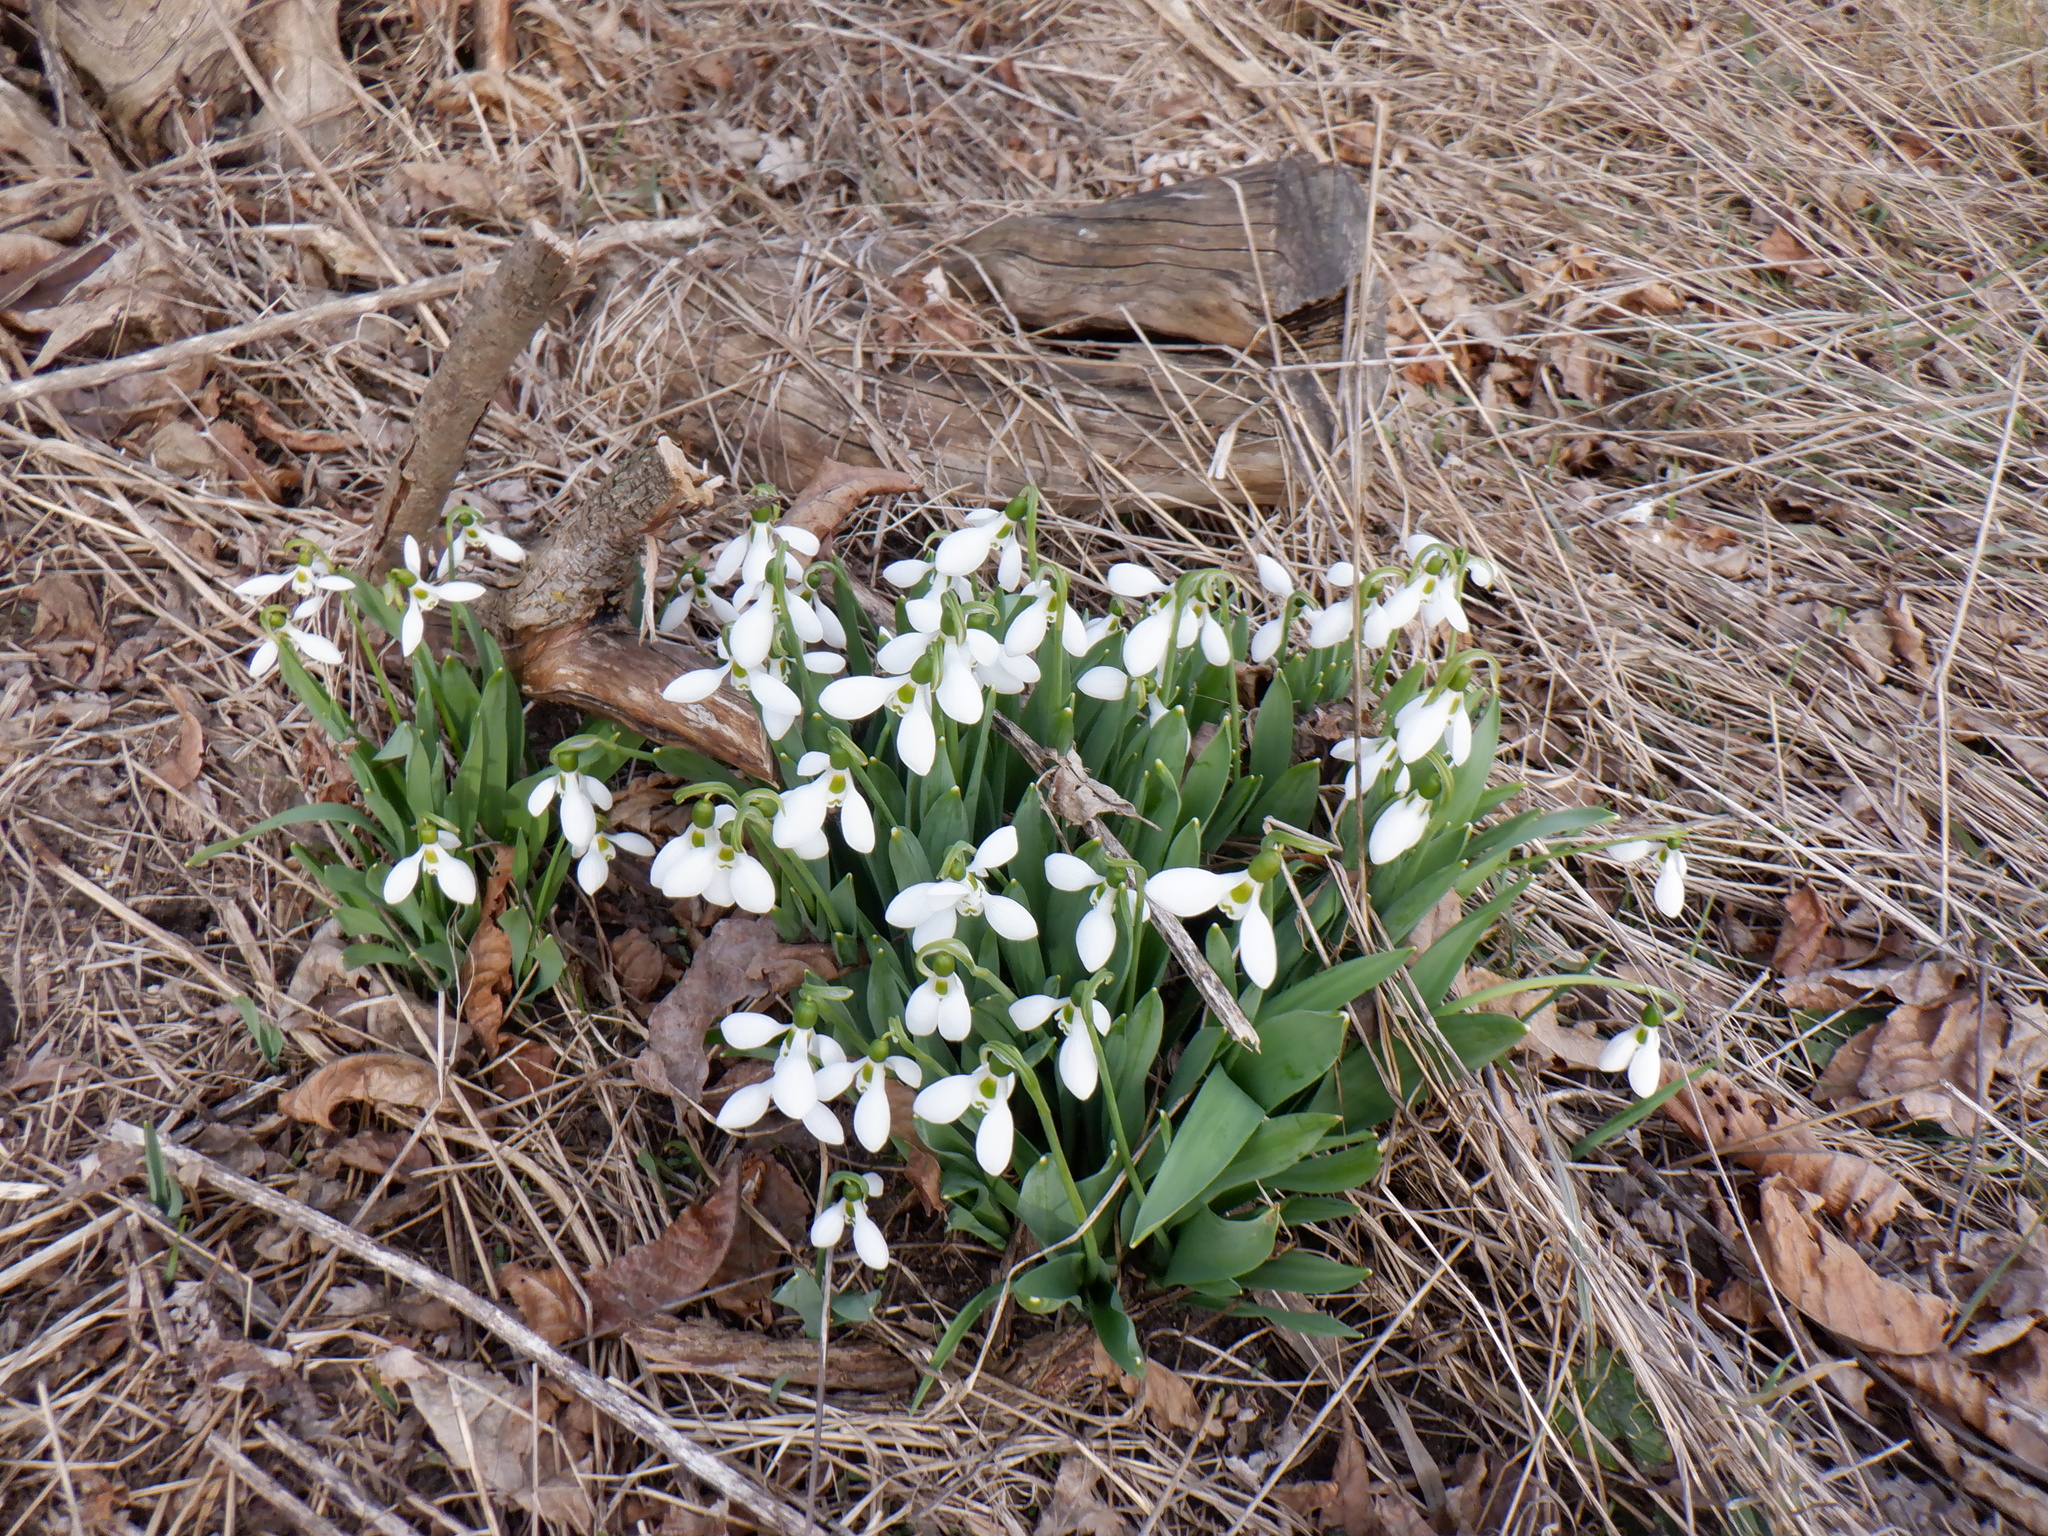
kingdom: Plantae
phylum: Tracheophyta
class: Liliopsida
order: Asparagales
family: Amaryllidaceae
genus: Galanthus
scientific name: Galanthus elwesii
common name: Greater snowdrop
